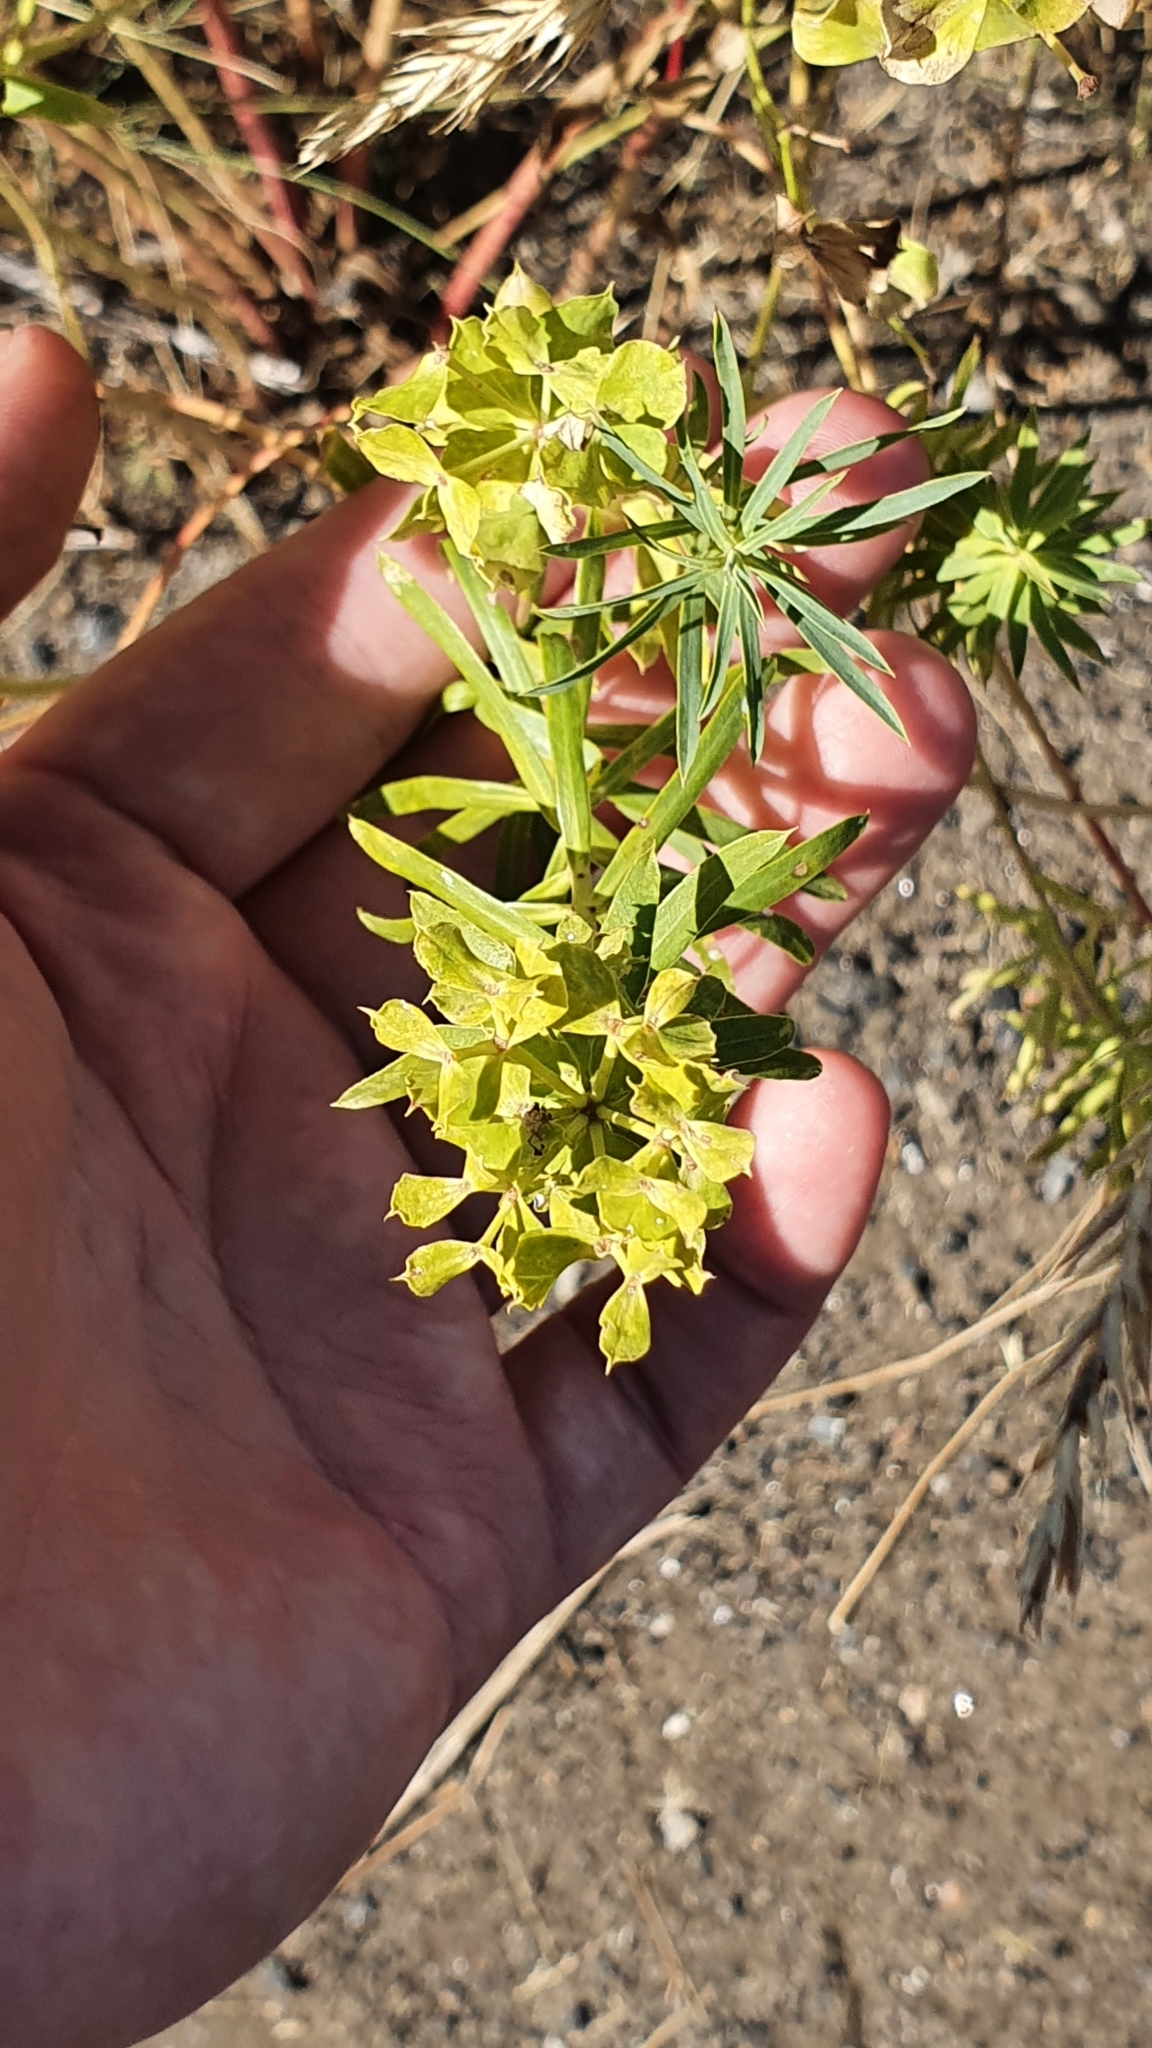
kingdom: Plantae
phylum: Tracheophyta
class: Magnoliopsida
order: Malpighiales
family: Euphorbiaceae
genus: Euphorbia
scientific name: Euphorbia virgata
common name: Leafy spurge
